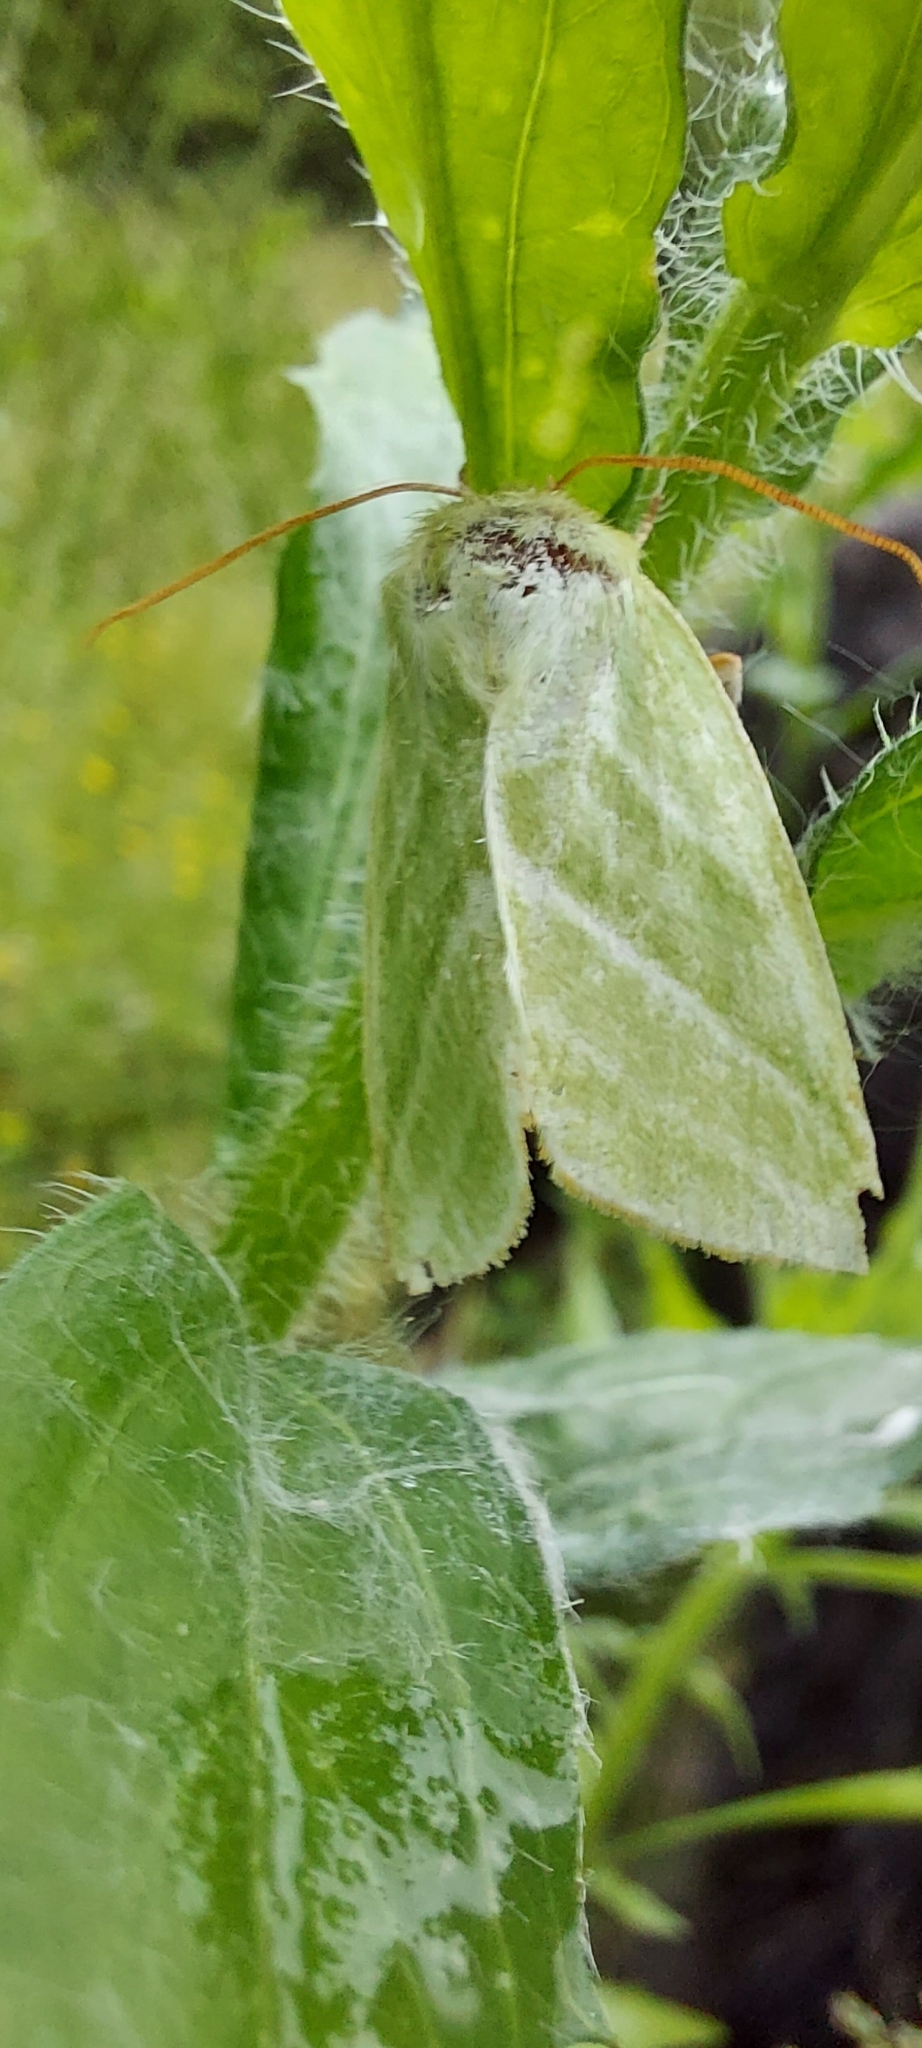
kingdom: Animalia
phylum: Arthropoda
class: Insecta
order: Lepidoptera
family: Nolidae
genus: Pseudoips
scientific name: Pseudoips prasinana
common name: Green silver-lines
